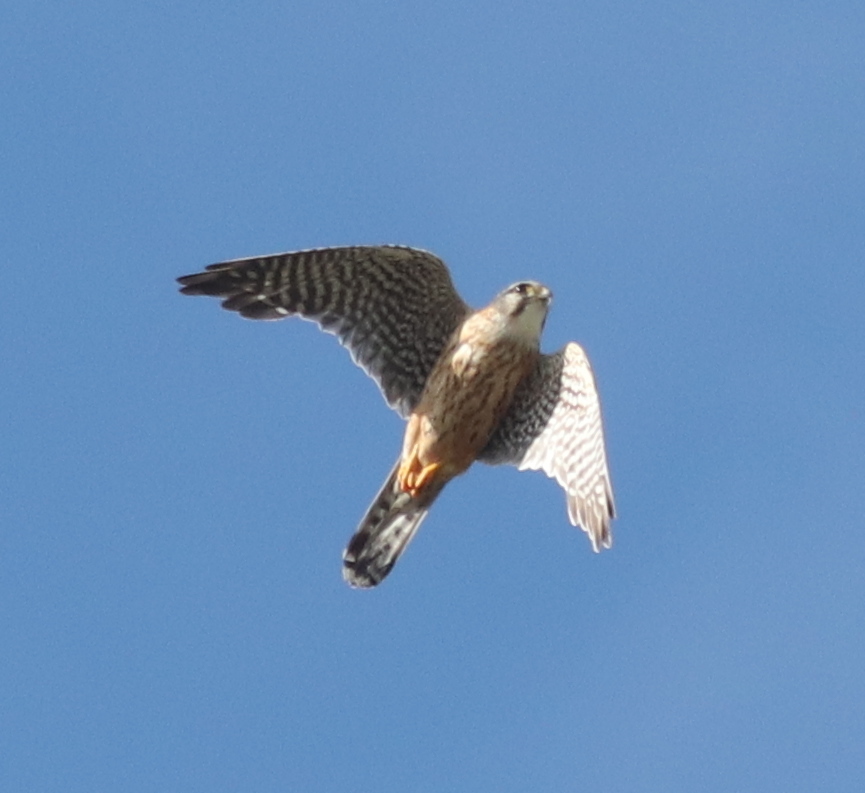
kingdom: Animalia
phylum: Chordata
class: Aves
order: Falconiformes
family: Falconidae
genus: Falco
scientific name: Falco columbarius
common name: Merlin
